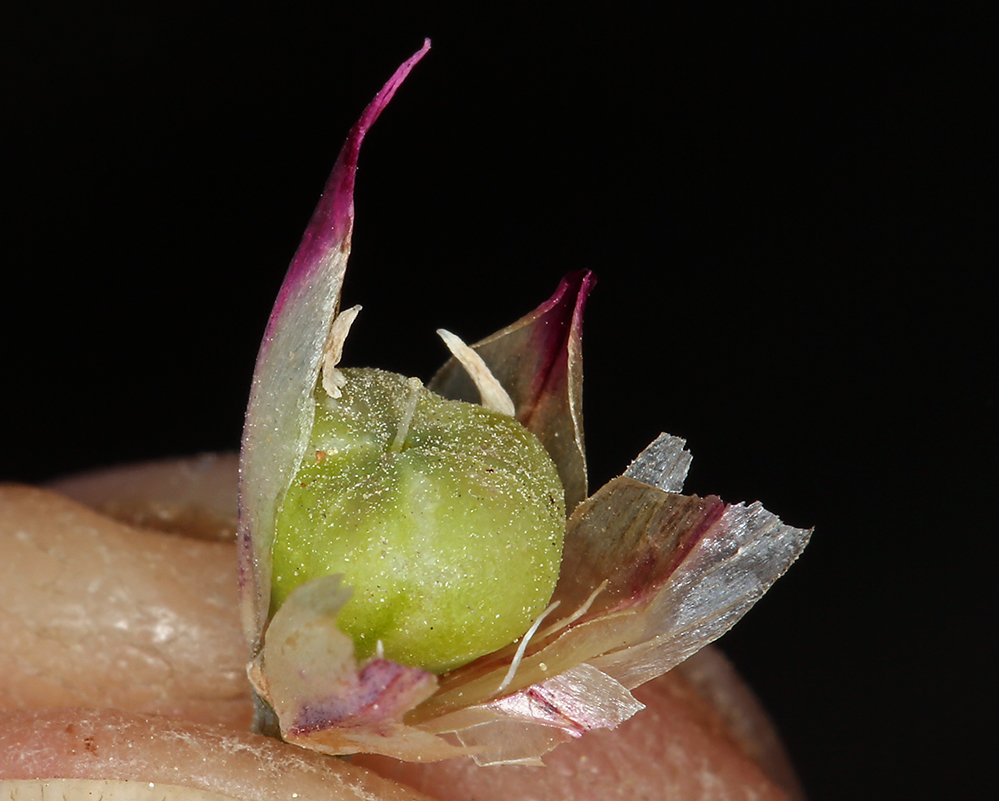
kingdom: Plantae
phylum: Tracheophyta
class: Liliopsida
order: Asparagales
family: Amaryllidaceae
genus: Allium
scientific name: Allium bolanderi
